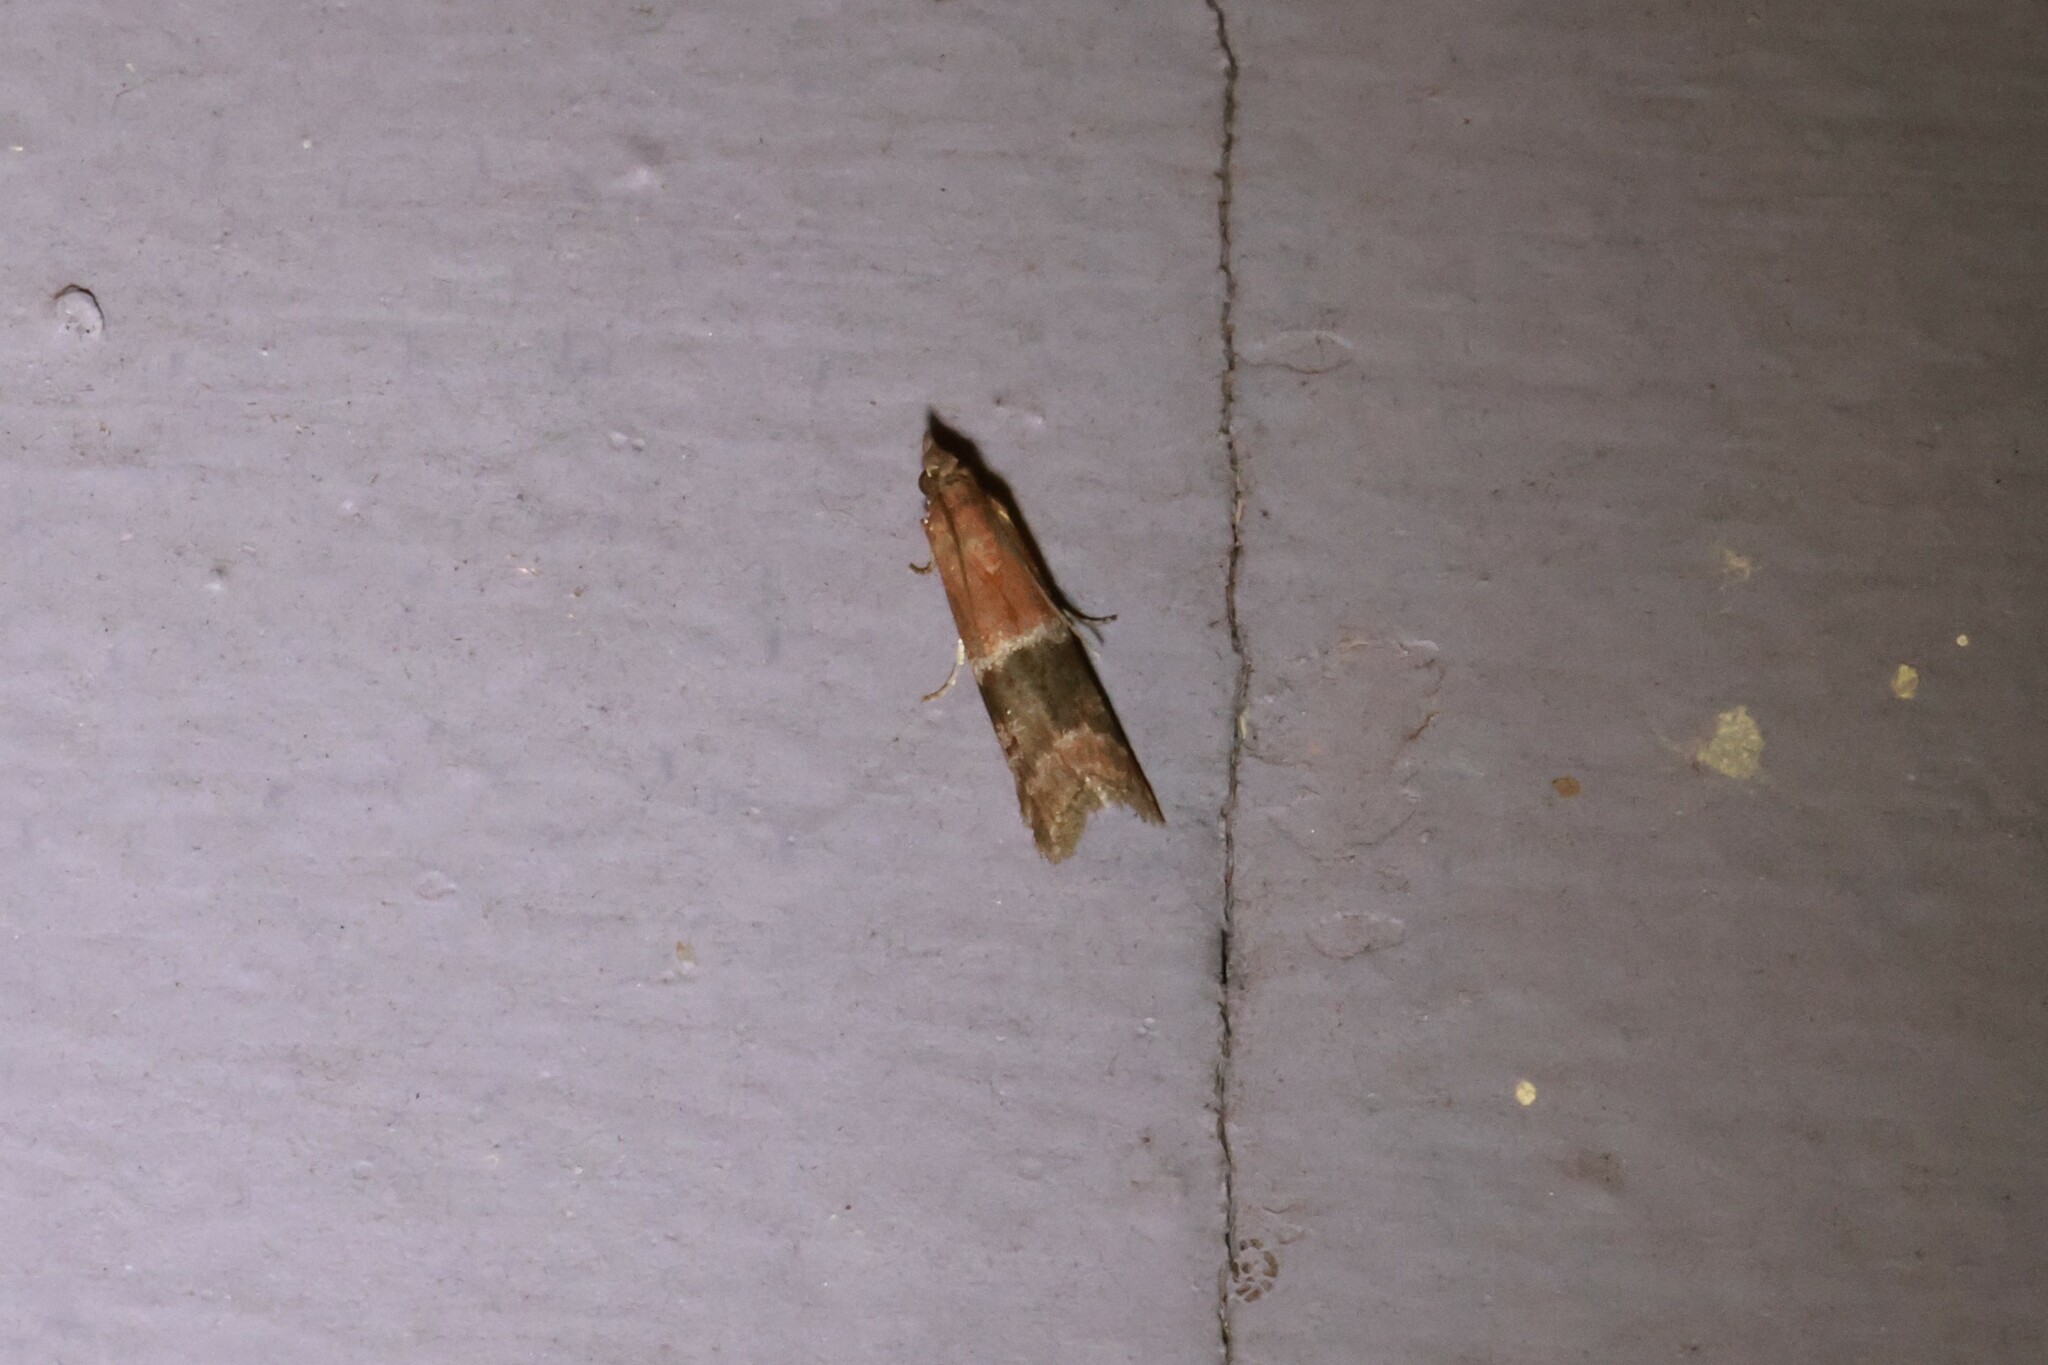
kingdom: Animalia
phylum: Arthropoda
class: Insecta
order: Lepidoptera
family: Pyralidae
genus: Moodna
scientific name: Moodna ostrinella
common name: Darker moodna moth
